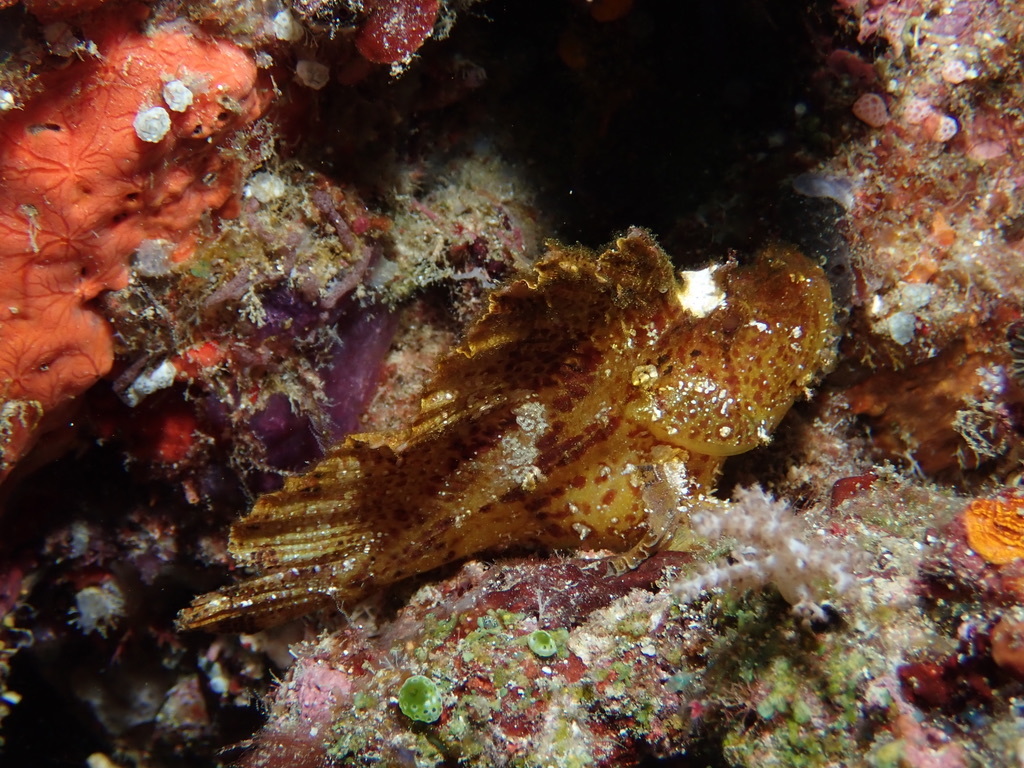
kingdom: Animalia
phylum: Chordata
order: Scorpaeniformes
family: Scorpaenidae
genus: Taenianotus
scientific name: Taenianotus triacanthus
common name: Leaf scorpionfish
